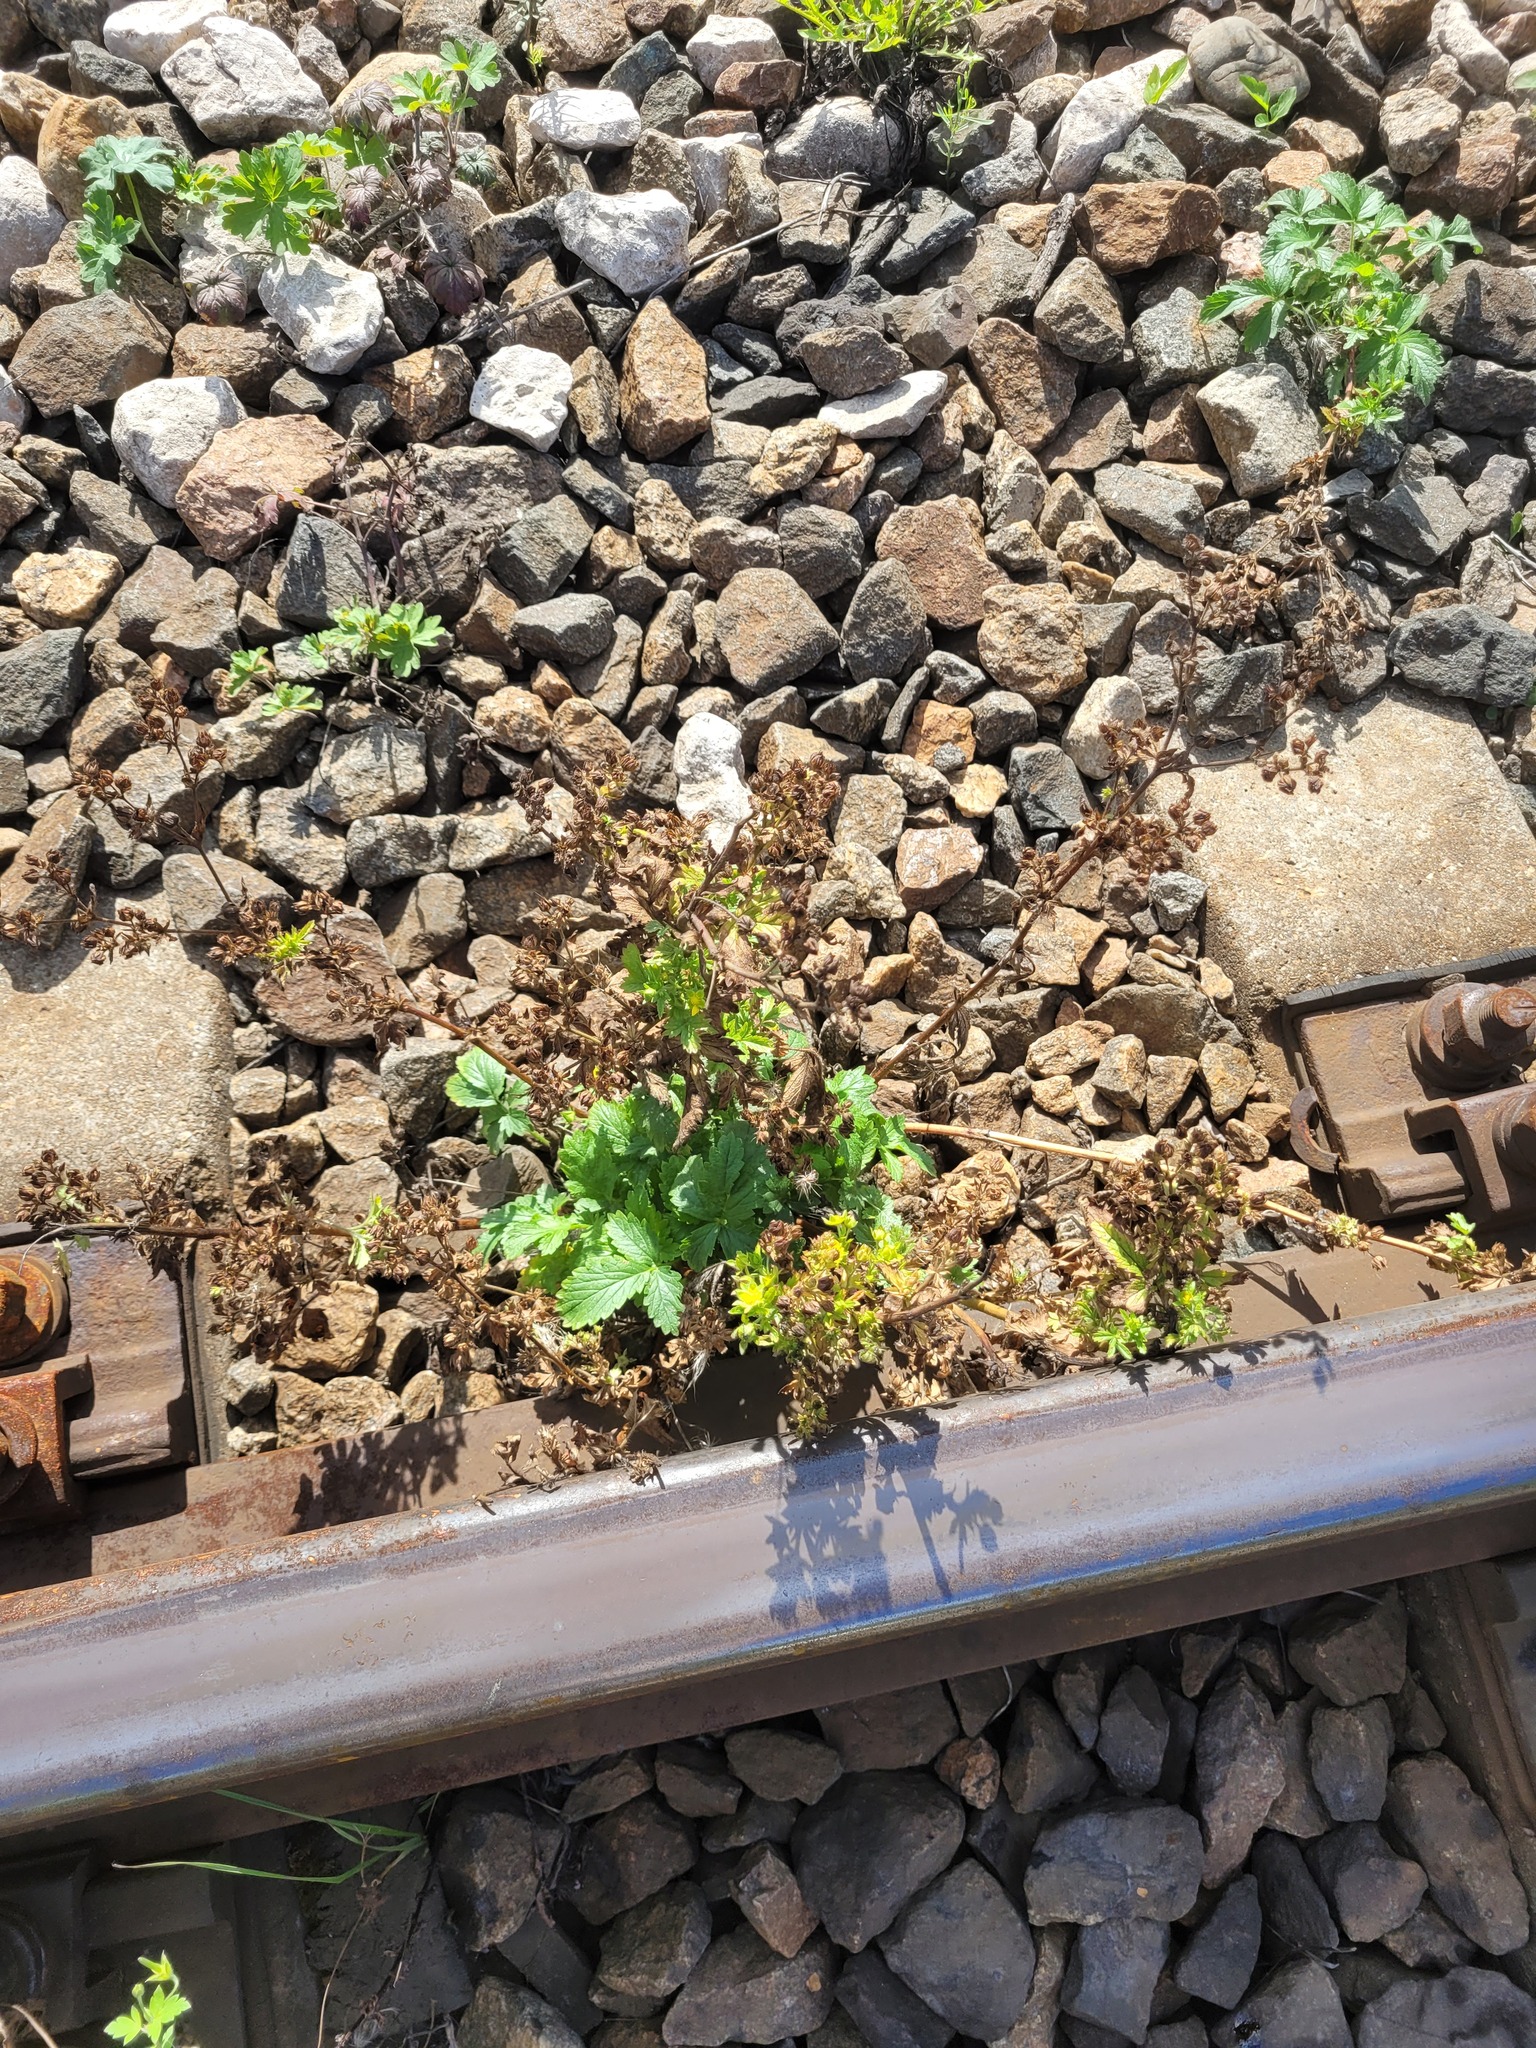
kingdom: Plantae
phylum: Tracheophyta
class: Magnoliopsida
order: Rosales
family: Rosaceae
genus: Potentilla
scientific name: Potentilla intermedia
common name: Downy cinquefoil
